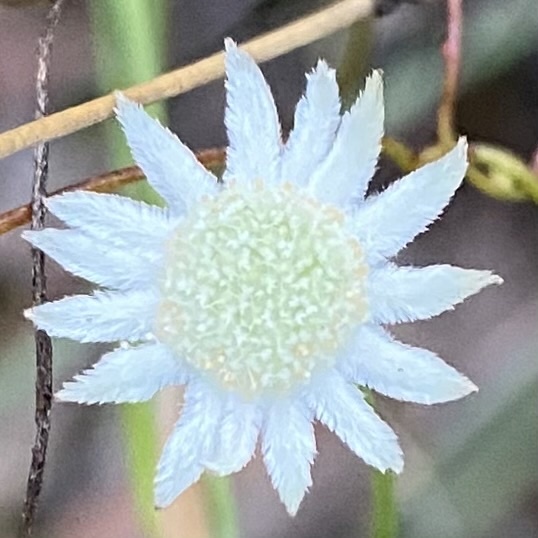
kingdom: Plantae
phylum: Tracheophyta
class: Magnoliopsida
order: Apiales
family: Apiaceae
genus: Actinotus
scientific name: Actinotus minor
